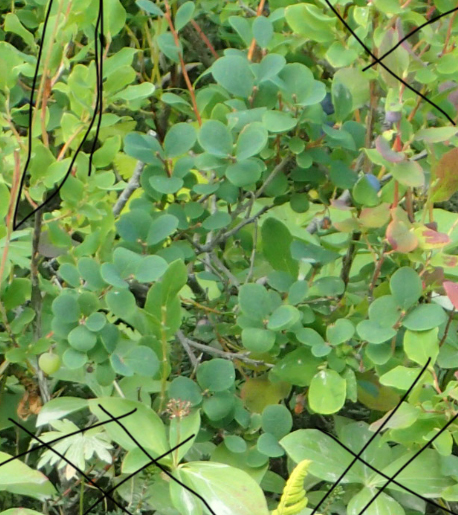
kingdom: Plantae
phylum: Tracheophyta
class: Magnoliopsida
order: Ericales
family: Ericaceae
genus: Vaccinium
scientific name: Vaccinium uliginosum
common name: Bog bilberry
